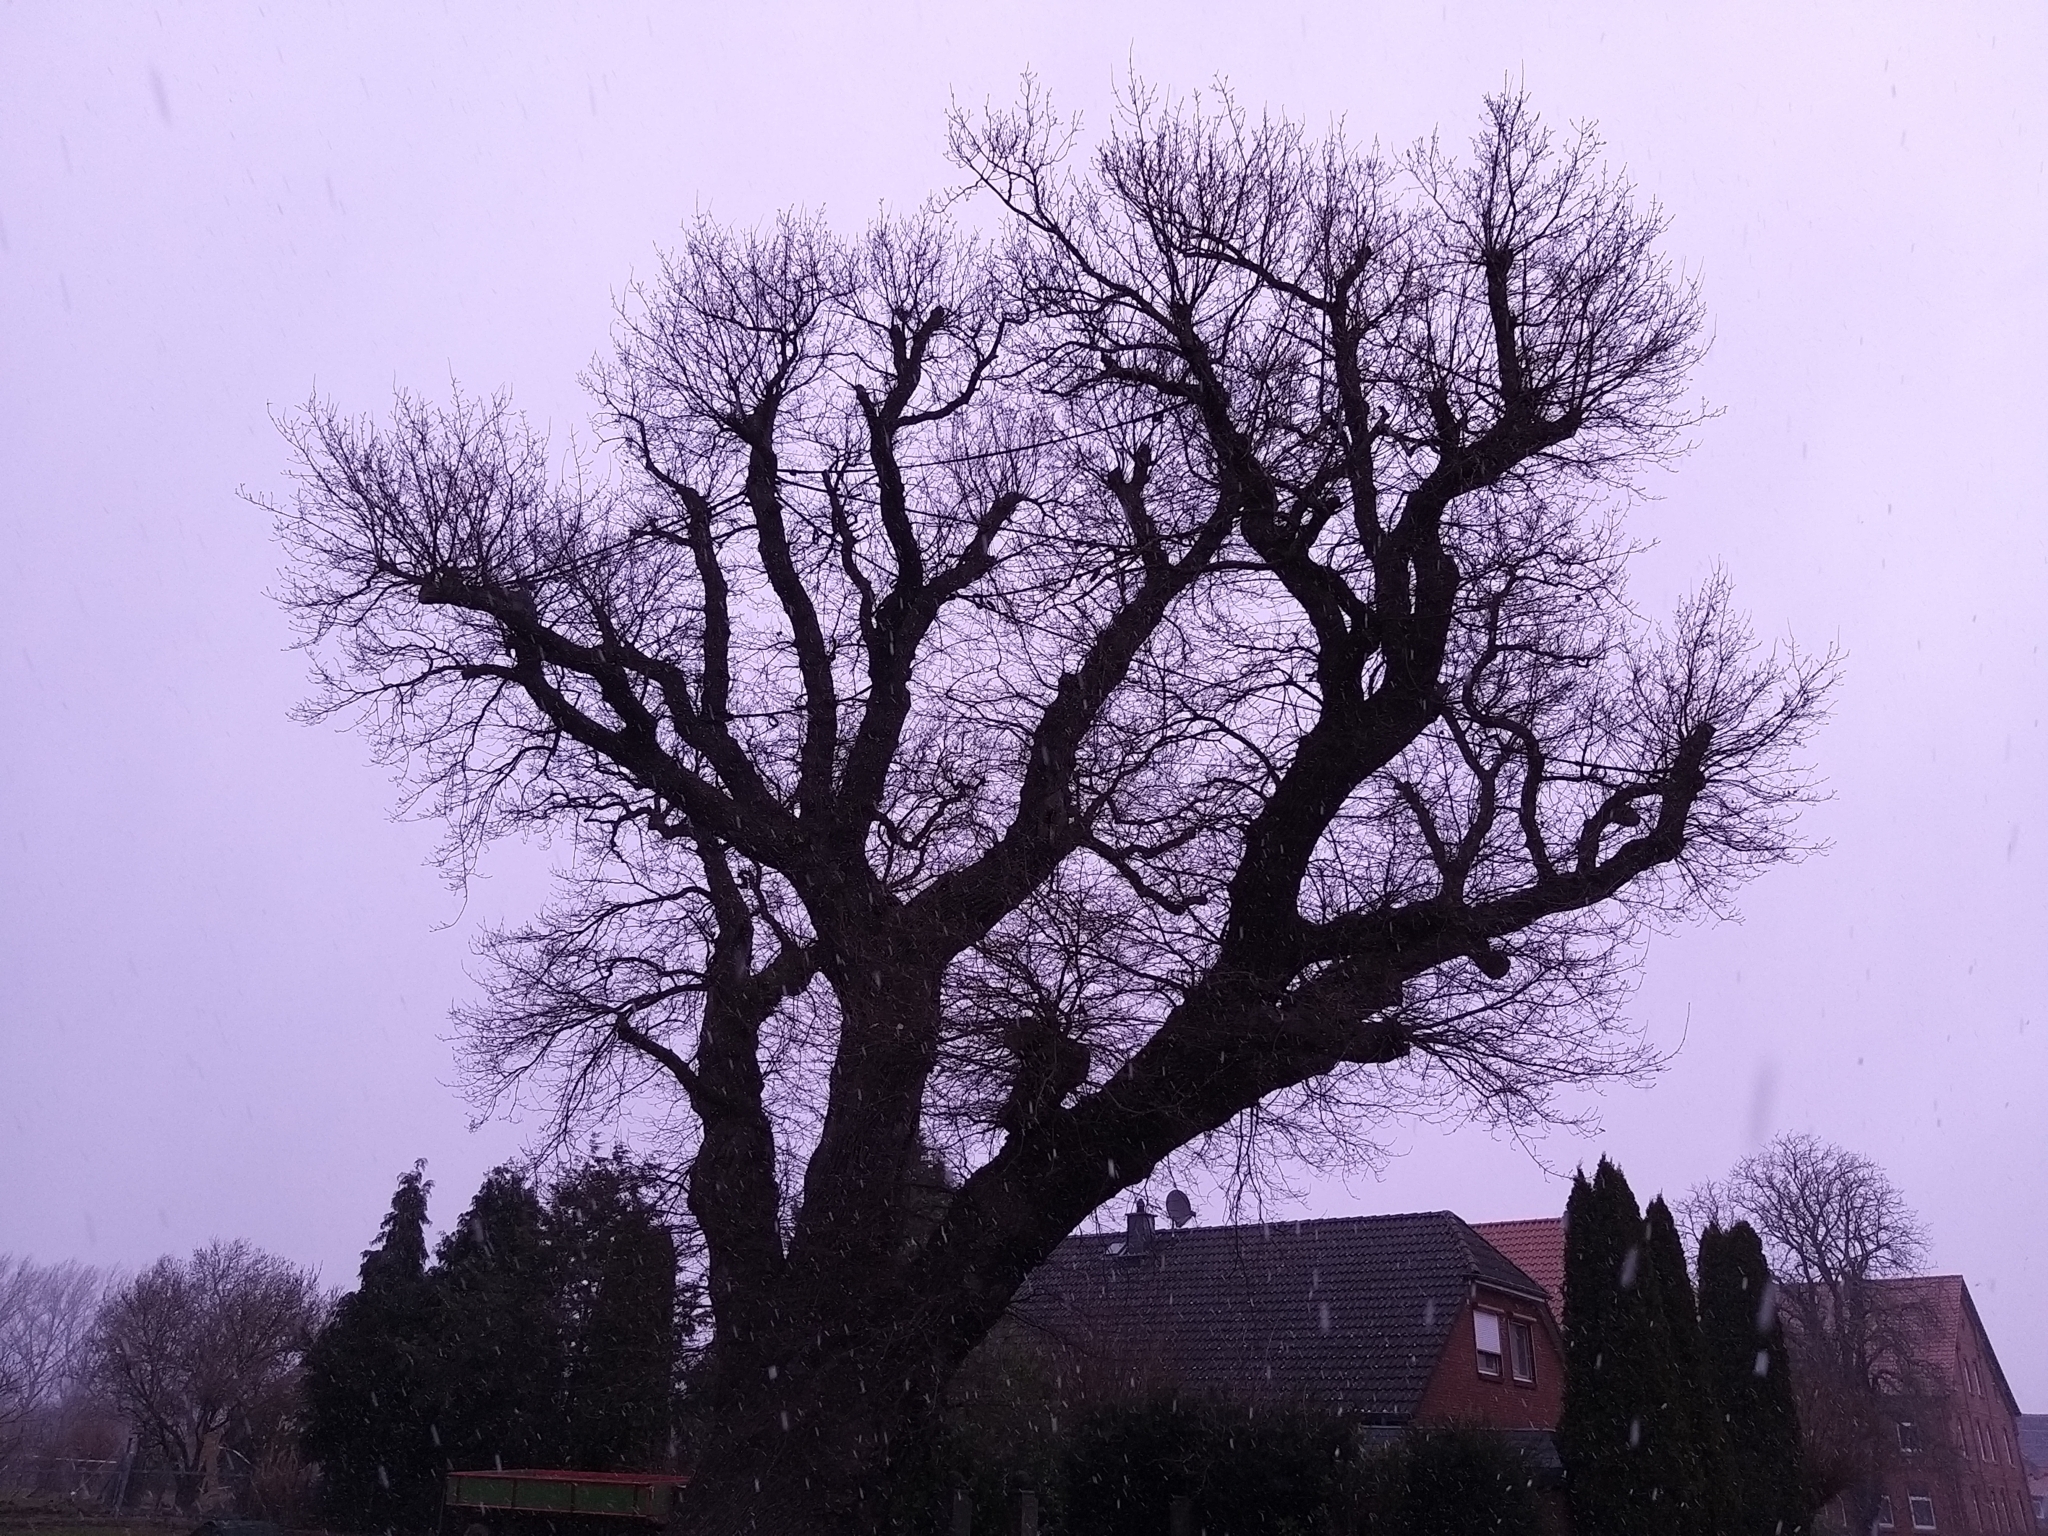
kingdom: Plantae
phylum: Tracheophyta
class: Magnoliopsida
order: Fagales
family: Fagaceae
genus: Quercus
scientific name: Quercus robur
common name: Pedunculate oak
